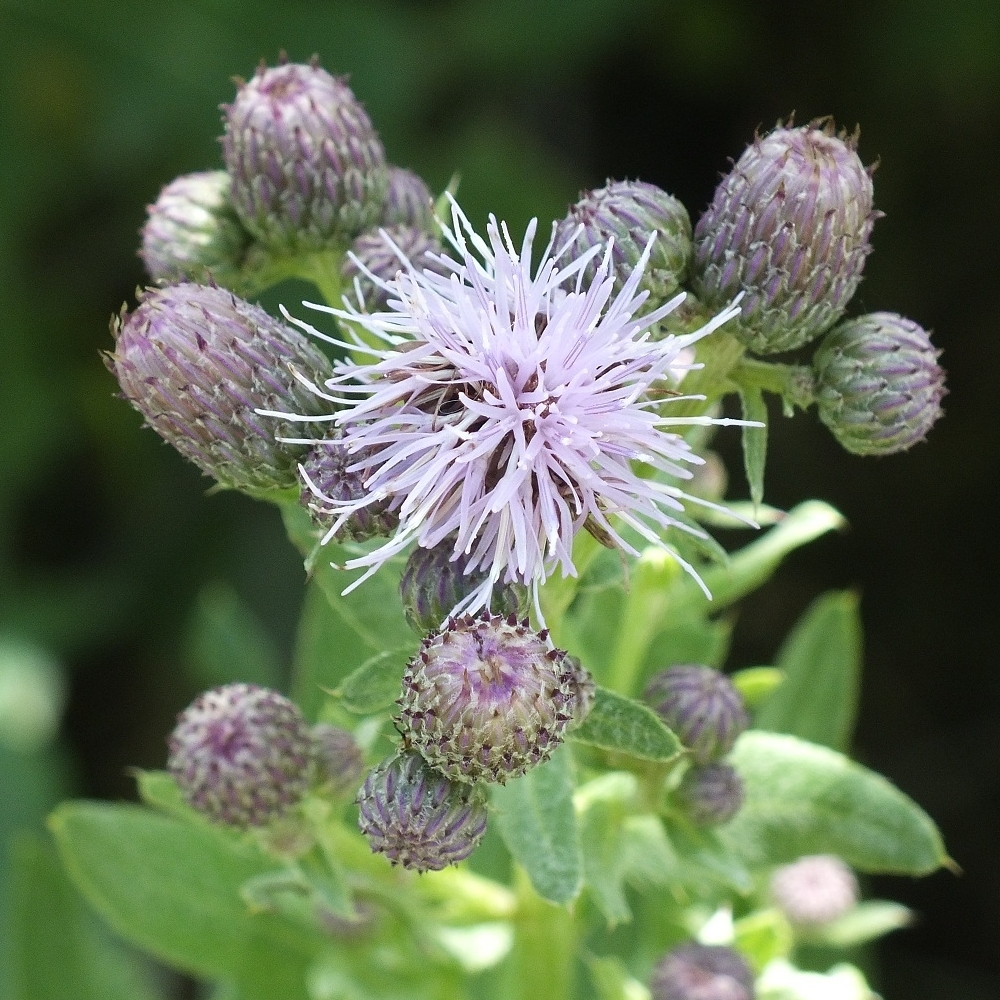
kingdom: Plantae
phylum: Tracheophyta
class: Magnoliopsida
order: Asterales
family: Asteraceae
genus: Cirsium
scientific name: Cirsium arvense
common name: Creeping thistle
